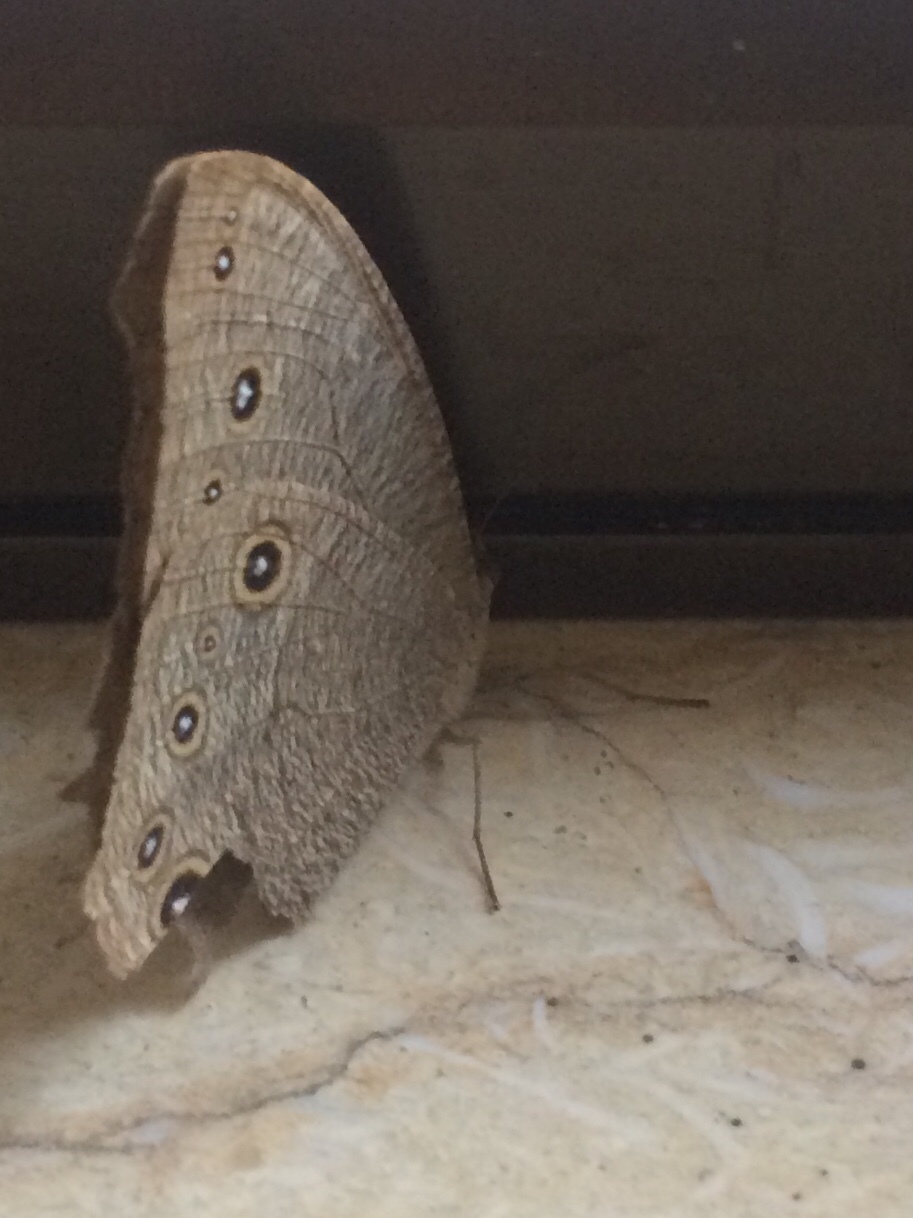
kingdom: Animalia
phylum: Arthropoda
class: Insecta
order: Lepidoptera
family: Nymphalidae
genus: Melanitis
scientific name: Melanitis leda
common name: Twilight brown
